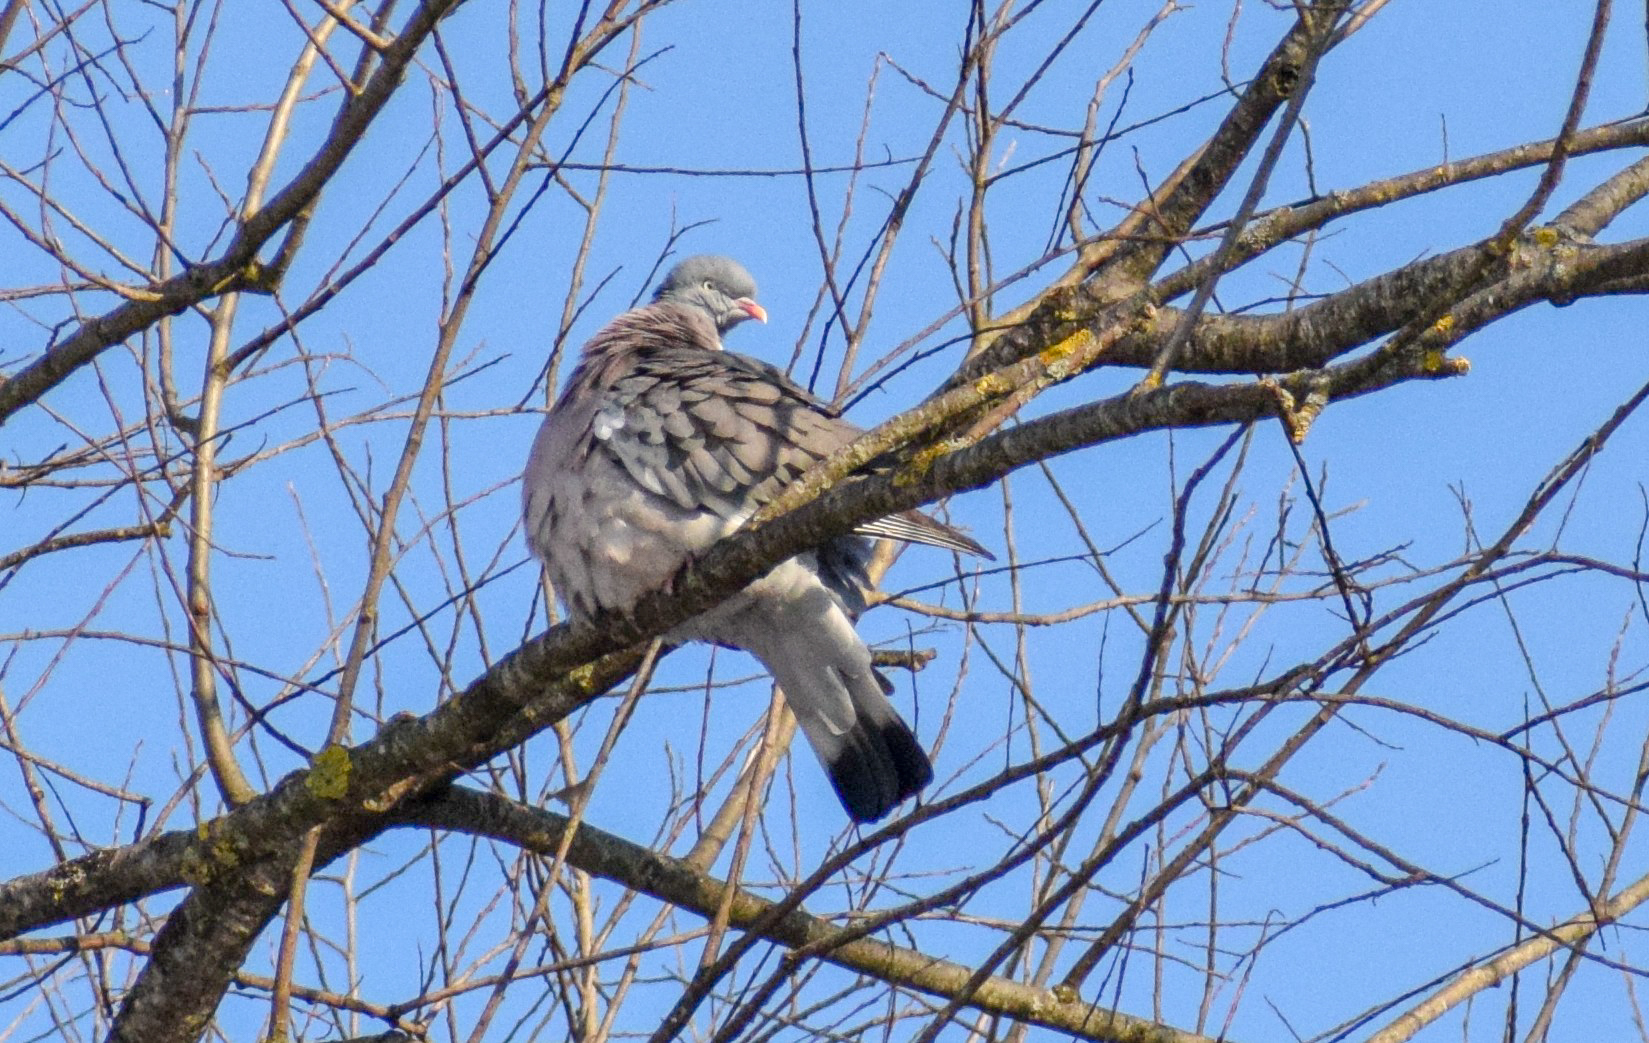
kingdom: Animalia
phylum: Chordata
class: Aves
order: Columbiformes
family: Columbidae
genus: Columba
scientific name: Columba palumbus
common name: Common wood pigeon
